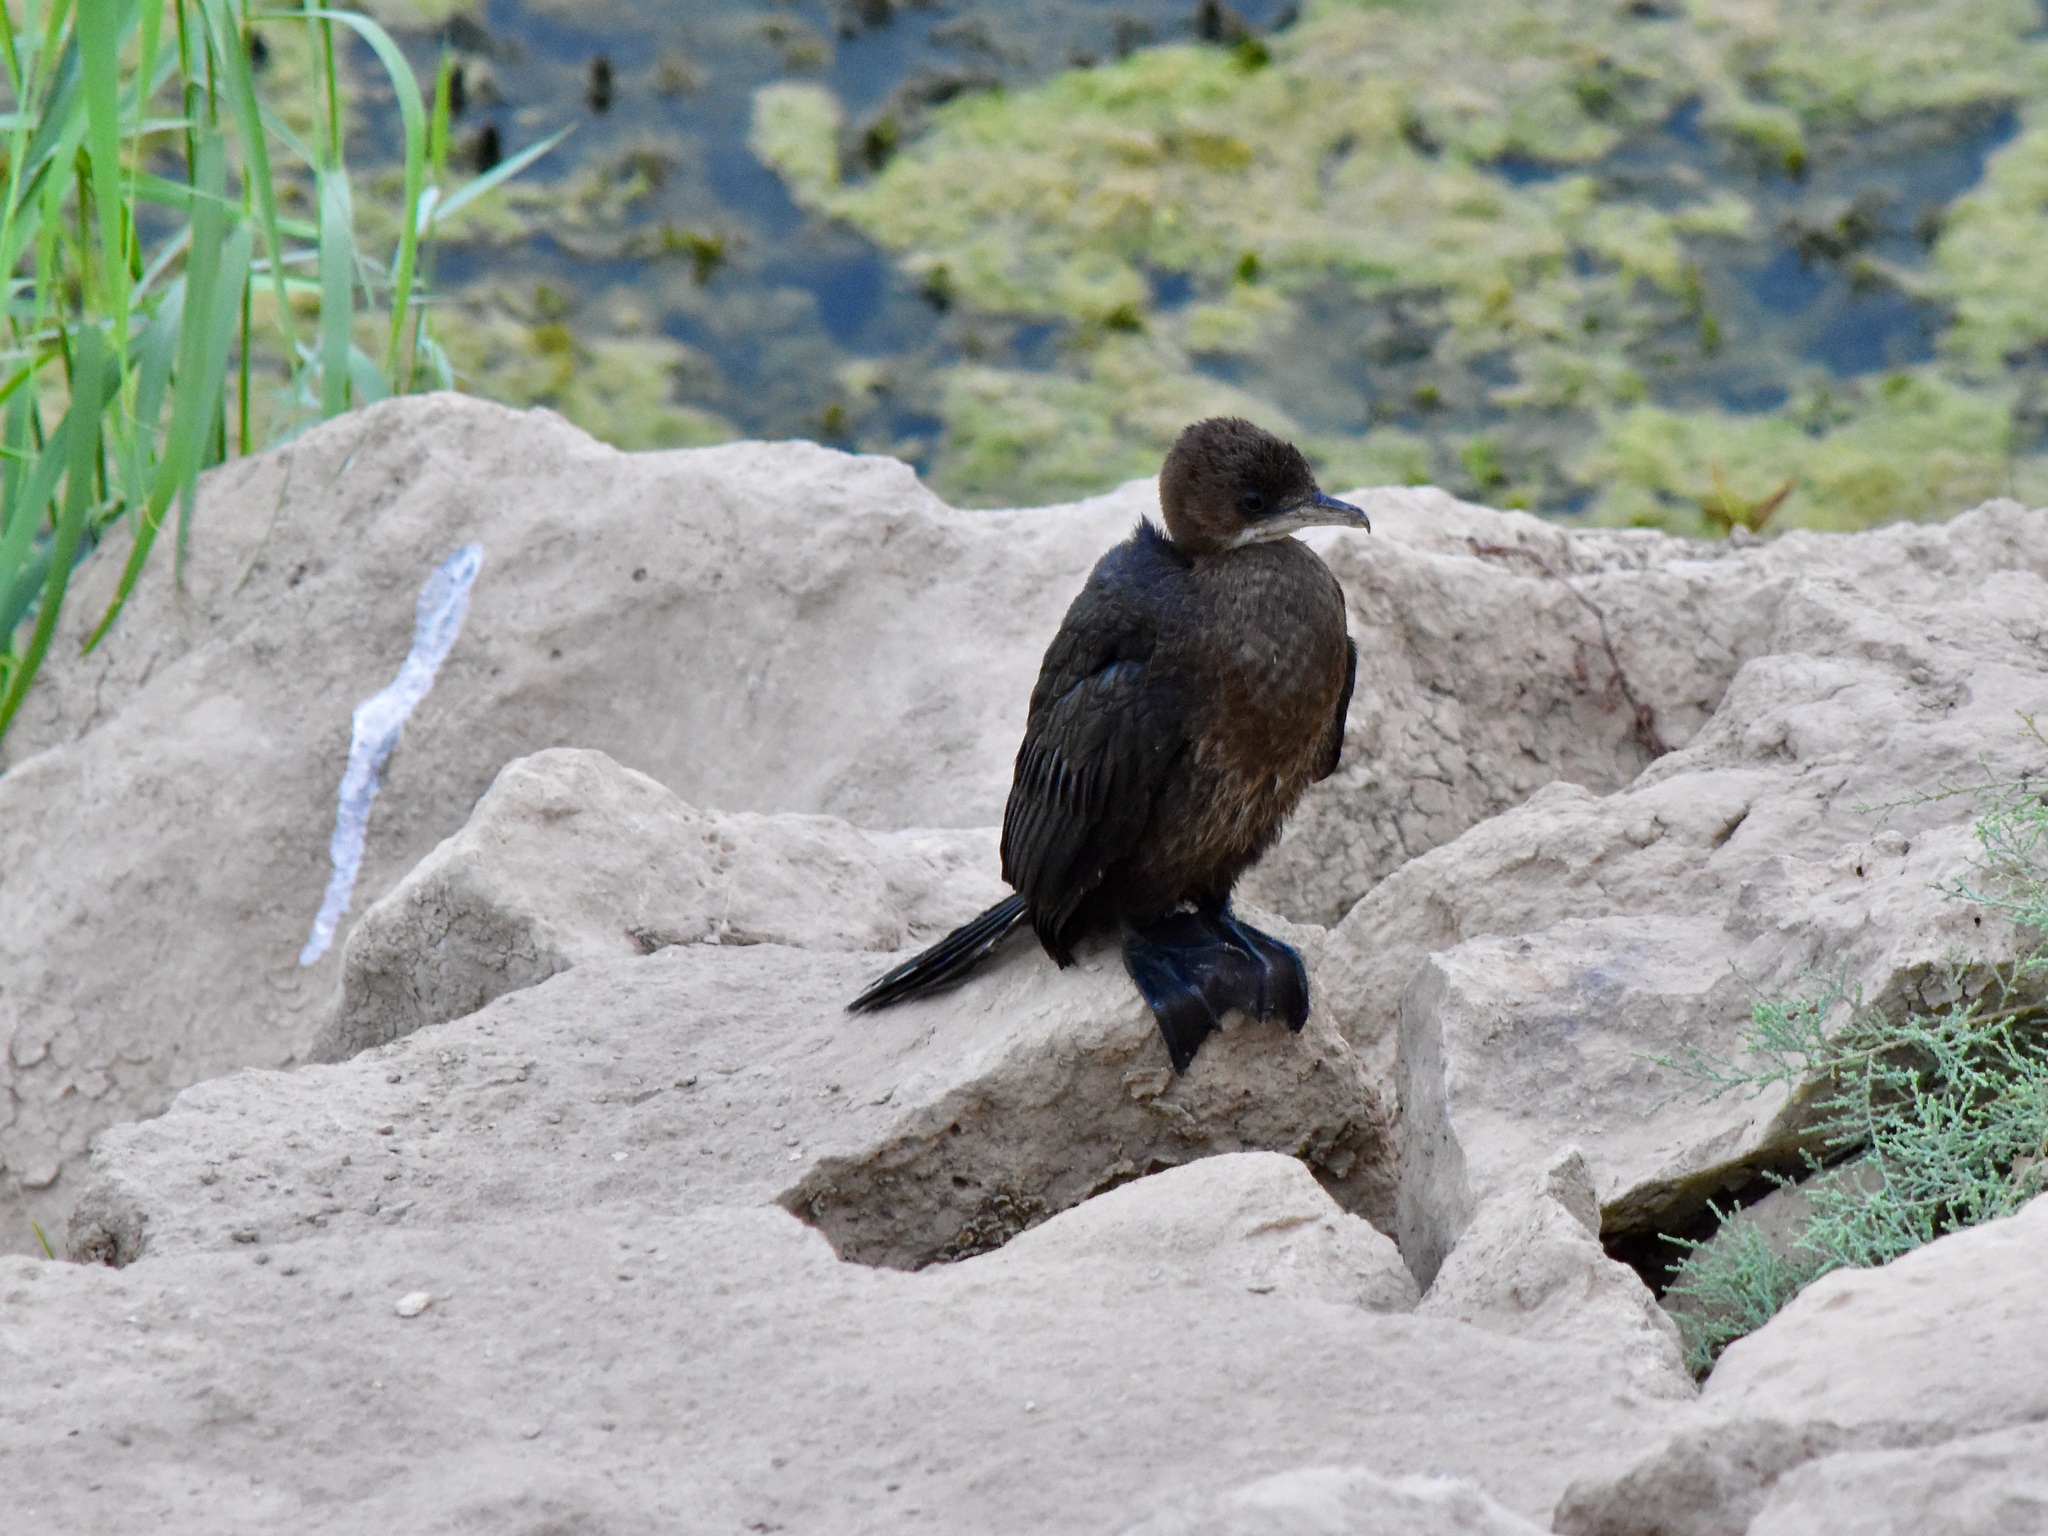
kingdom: Animalia
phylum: Chordata
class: Aves
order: Suliformes
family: Phalacrocoracidae
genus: Microcarbo
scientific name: Microcarbo pygmaeus
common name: Pygmy cormorant
